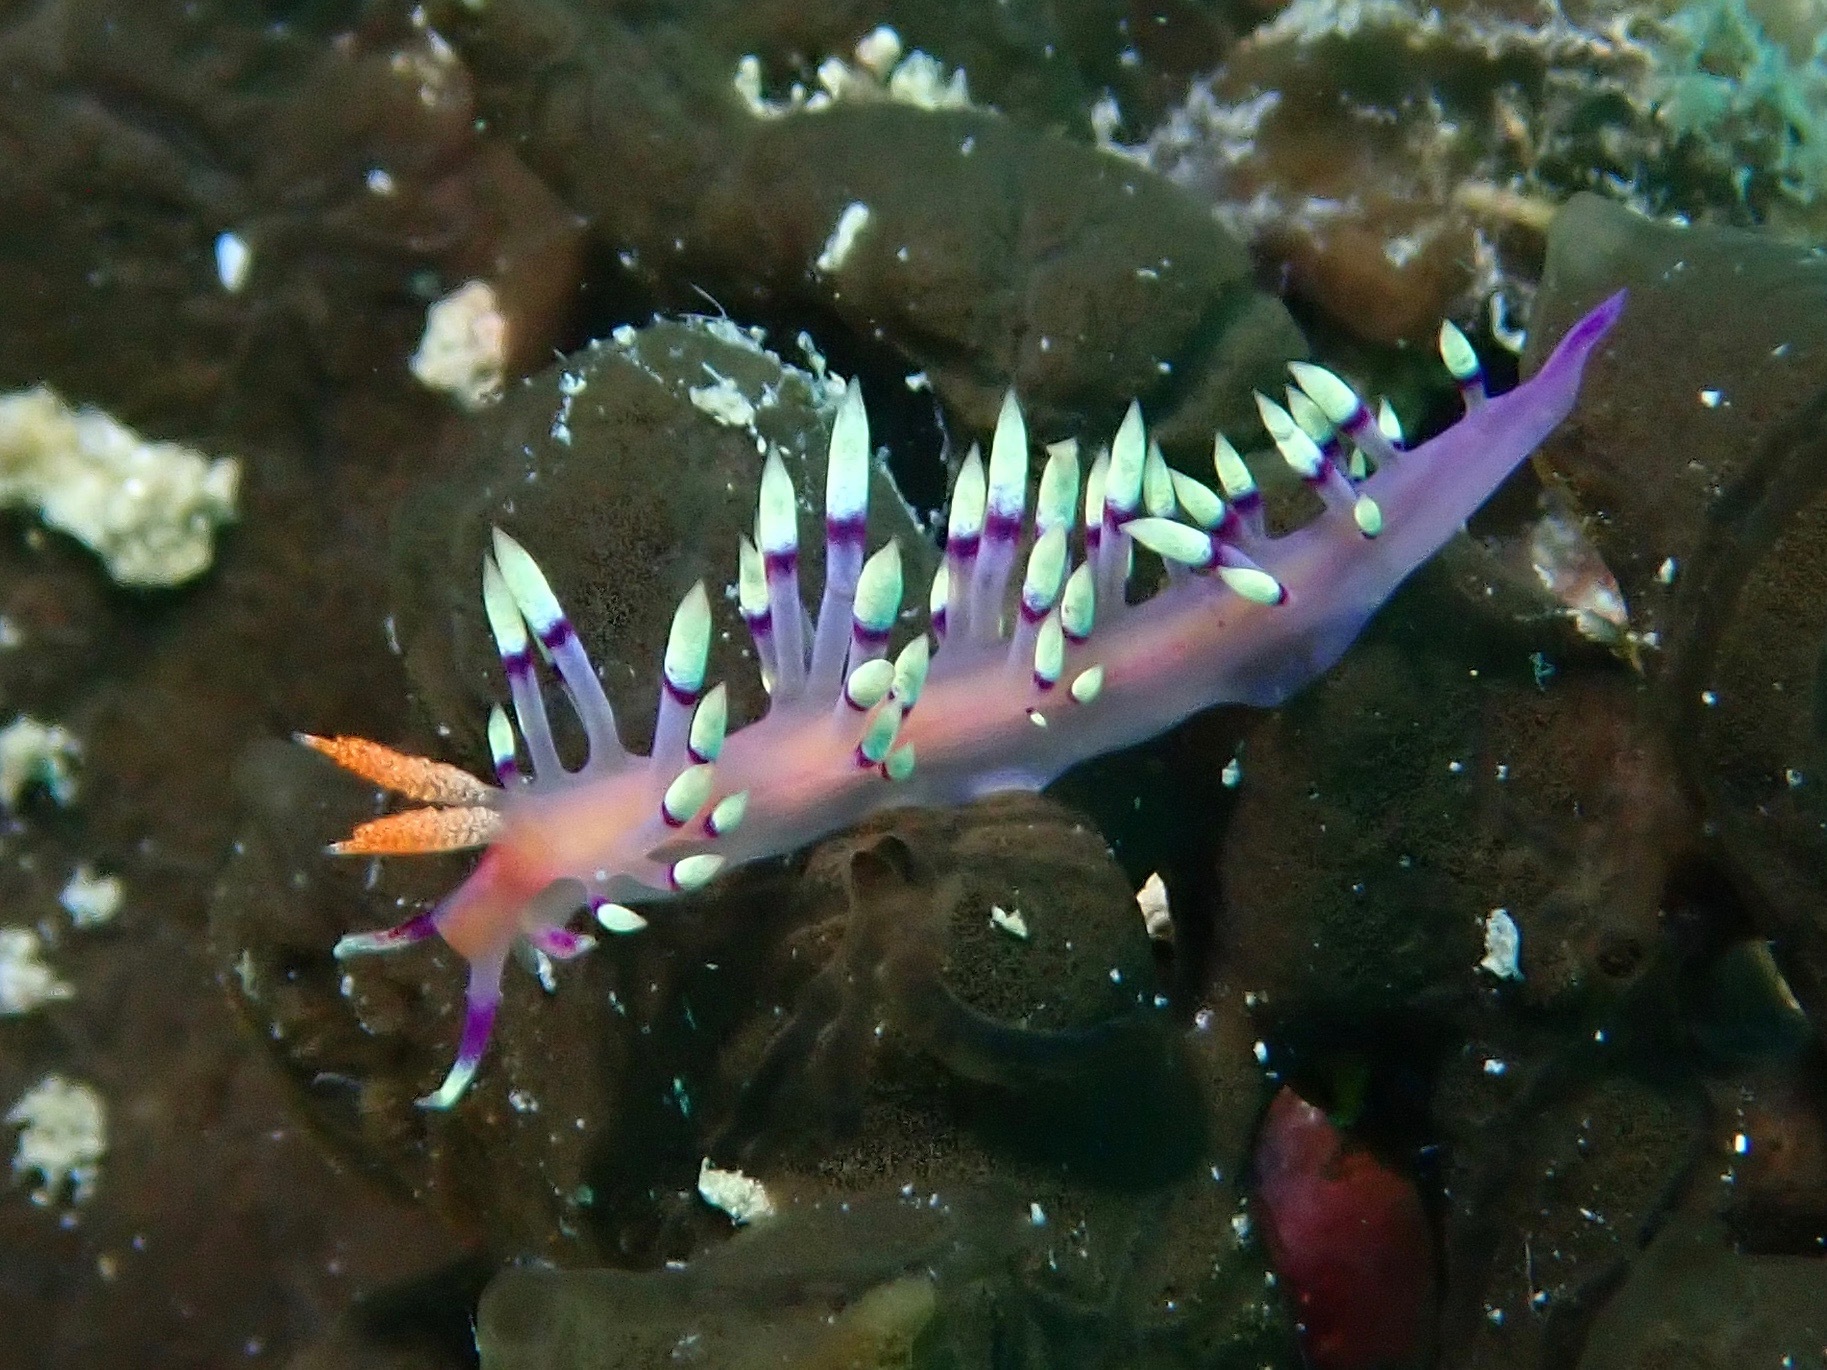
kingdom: Animalia
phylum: Mollusca
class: Gastropoda
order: Nudibranchia
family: Flabellinidae
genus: Coryphellina
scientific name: Coryphellina exoptata
